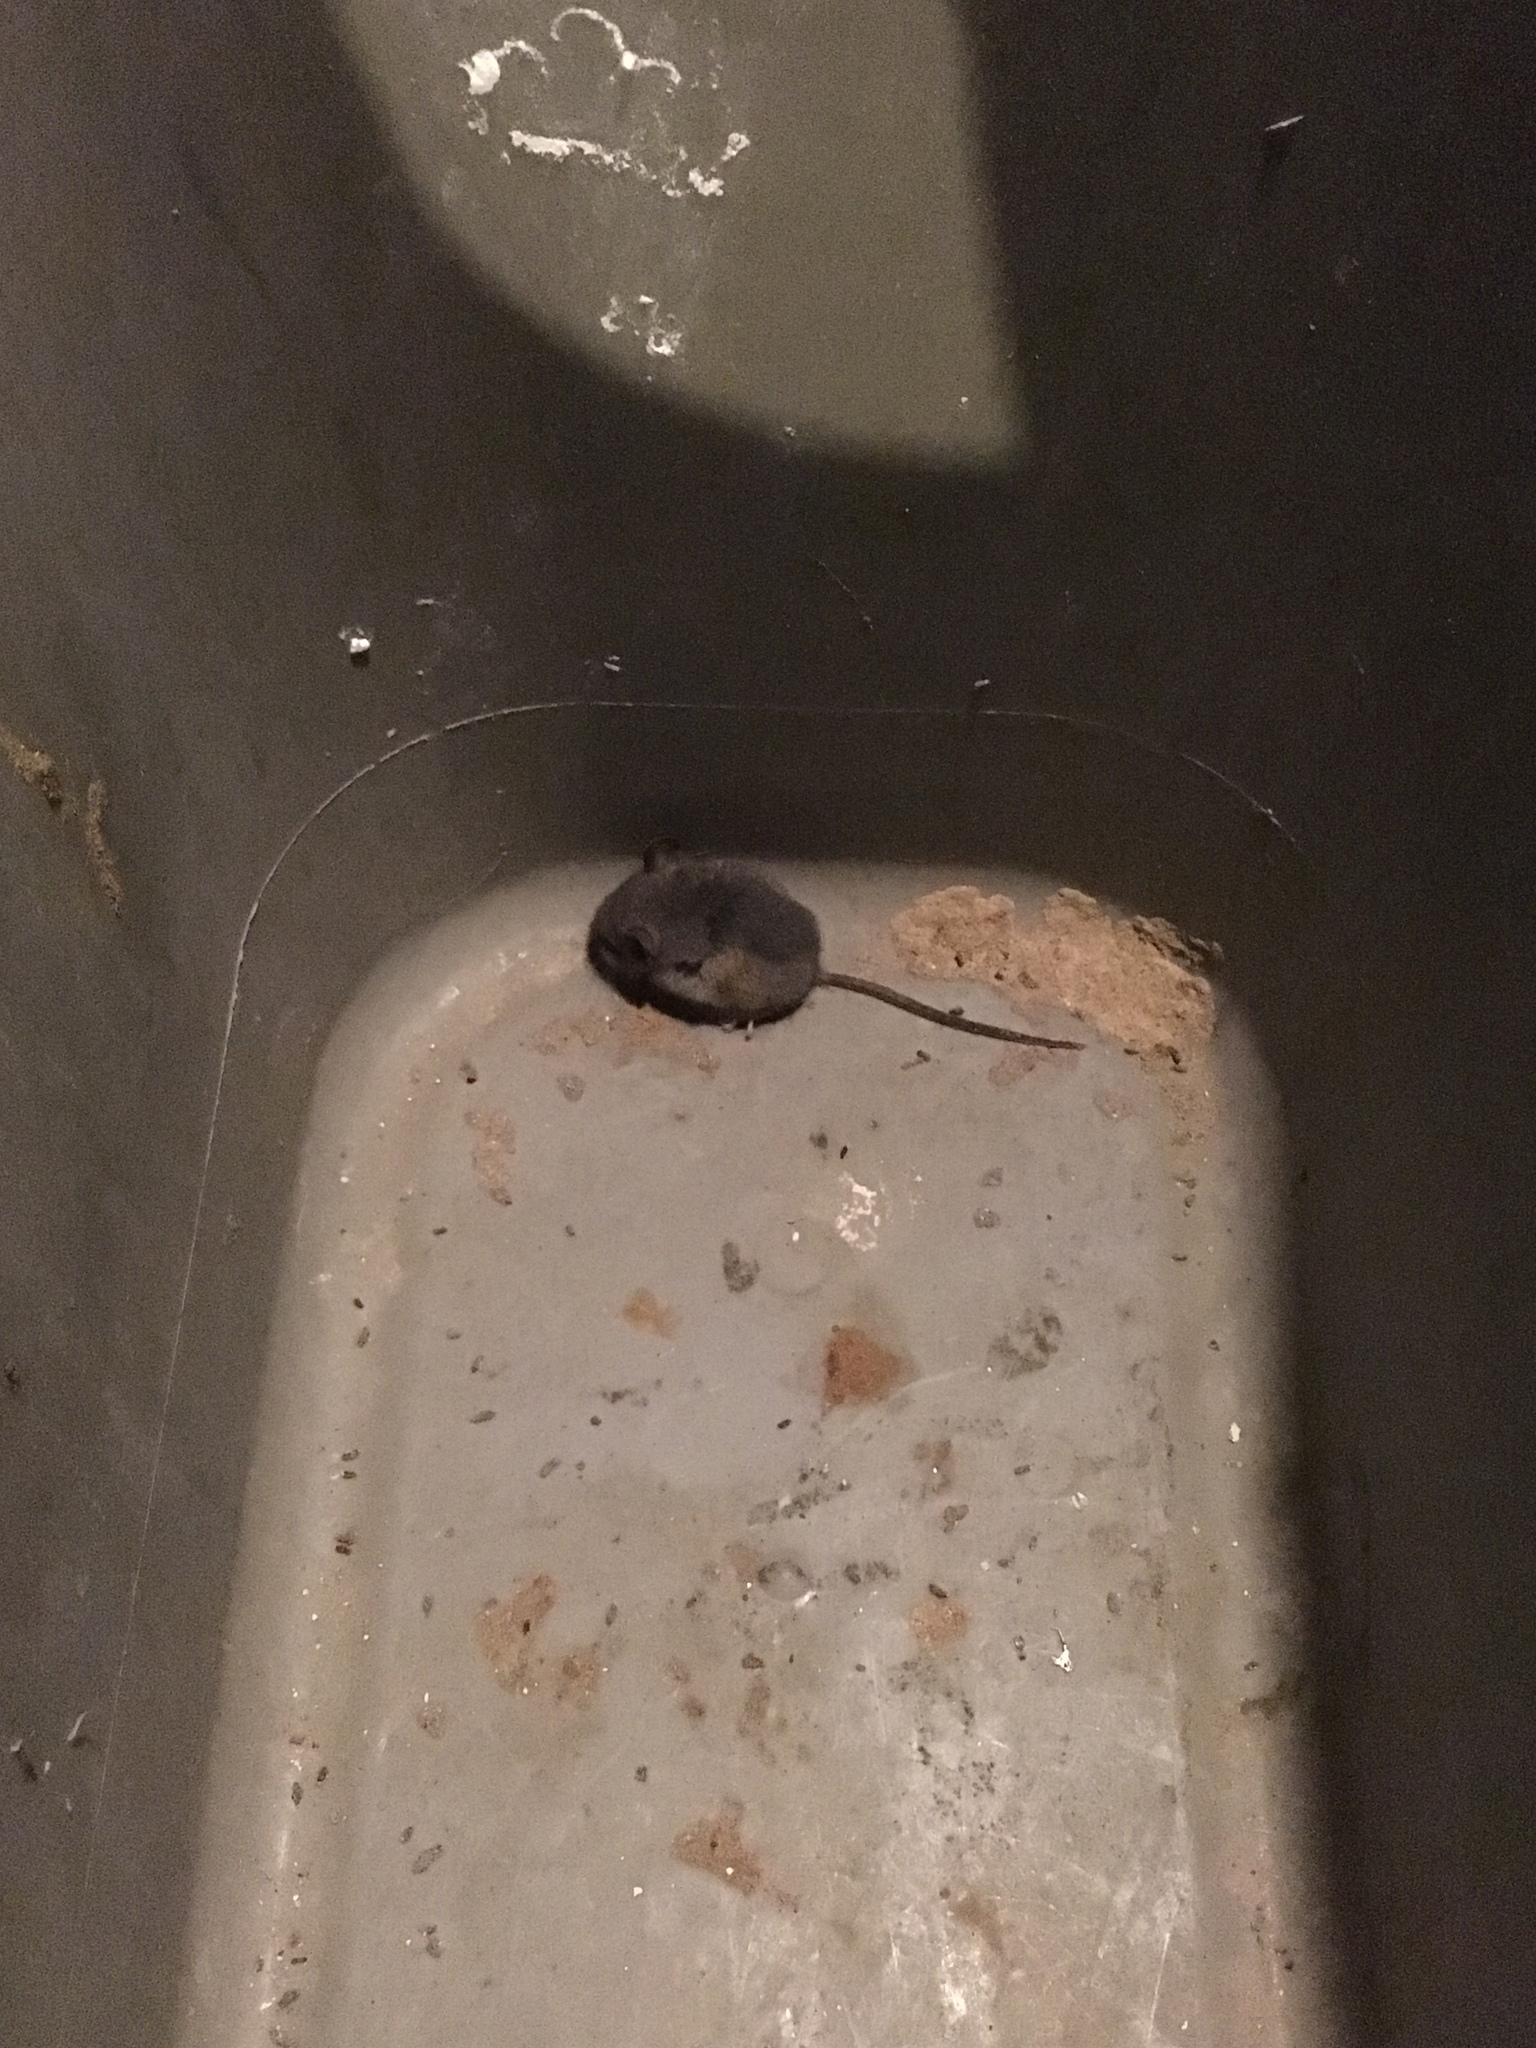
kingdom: Animalia
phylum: Chordata
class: Mammalia
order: Rodentia
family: Cricetidae
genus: Peromyscus
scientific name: Peromyscus
